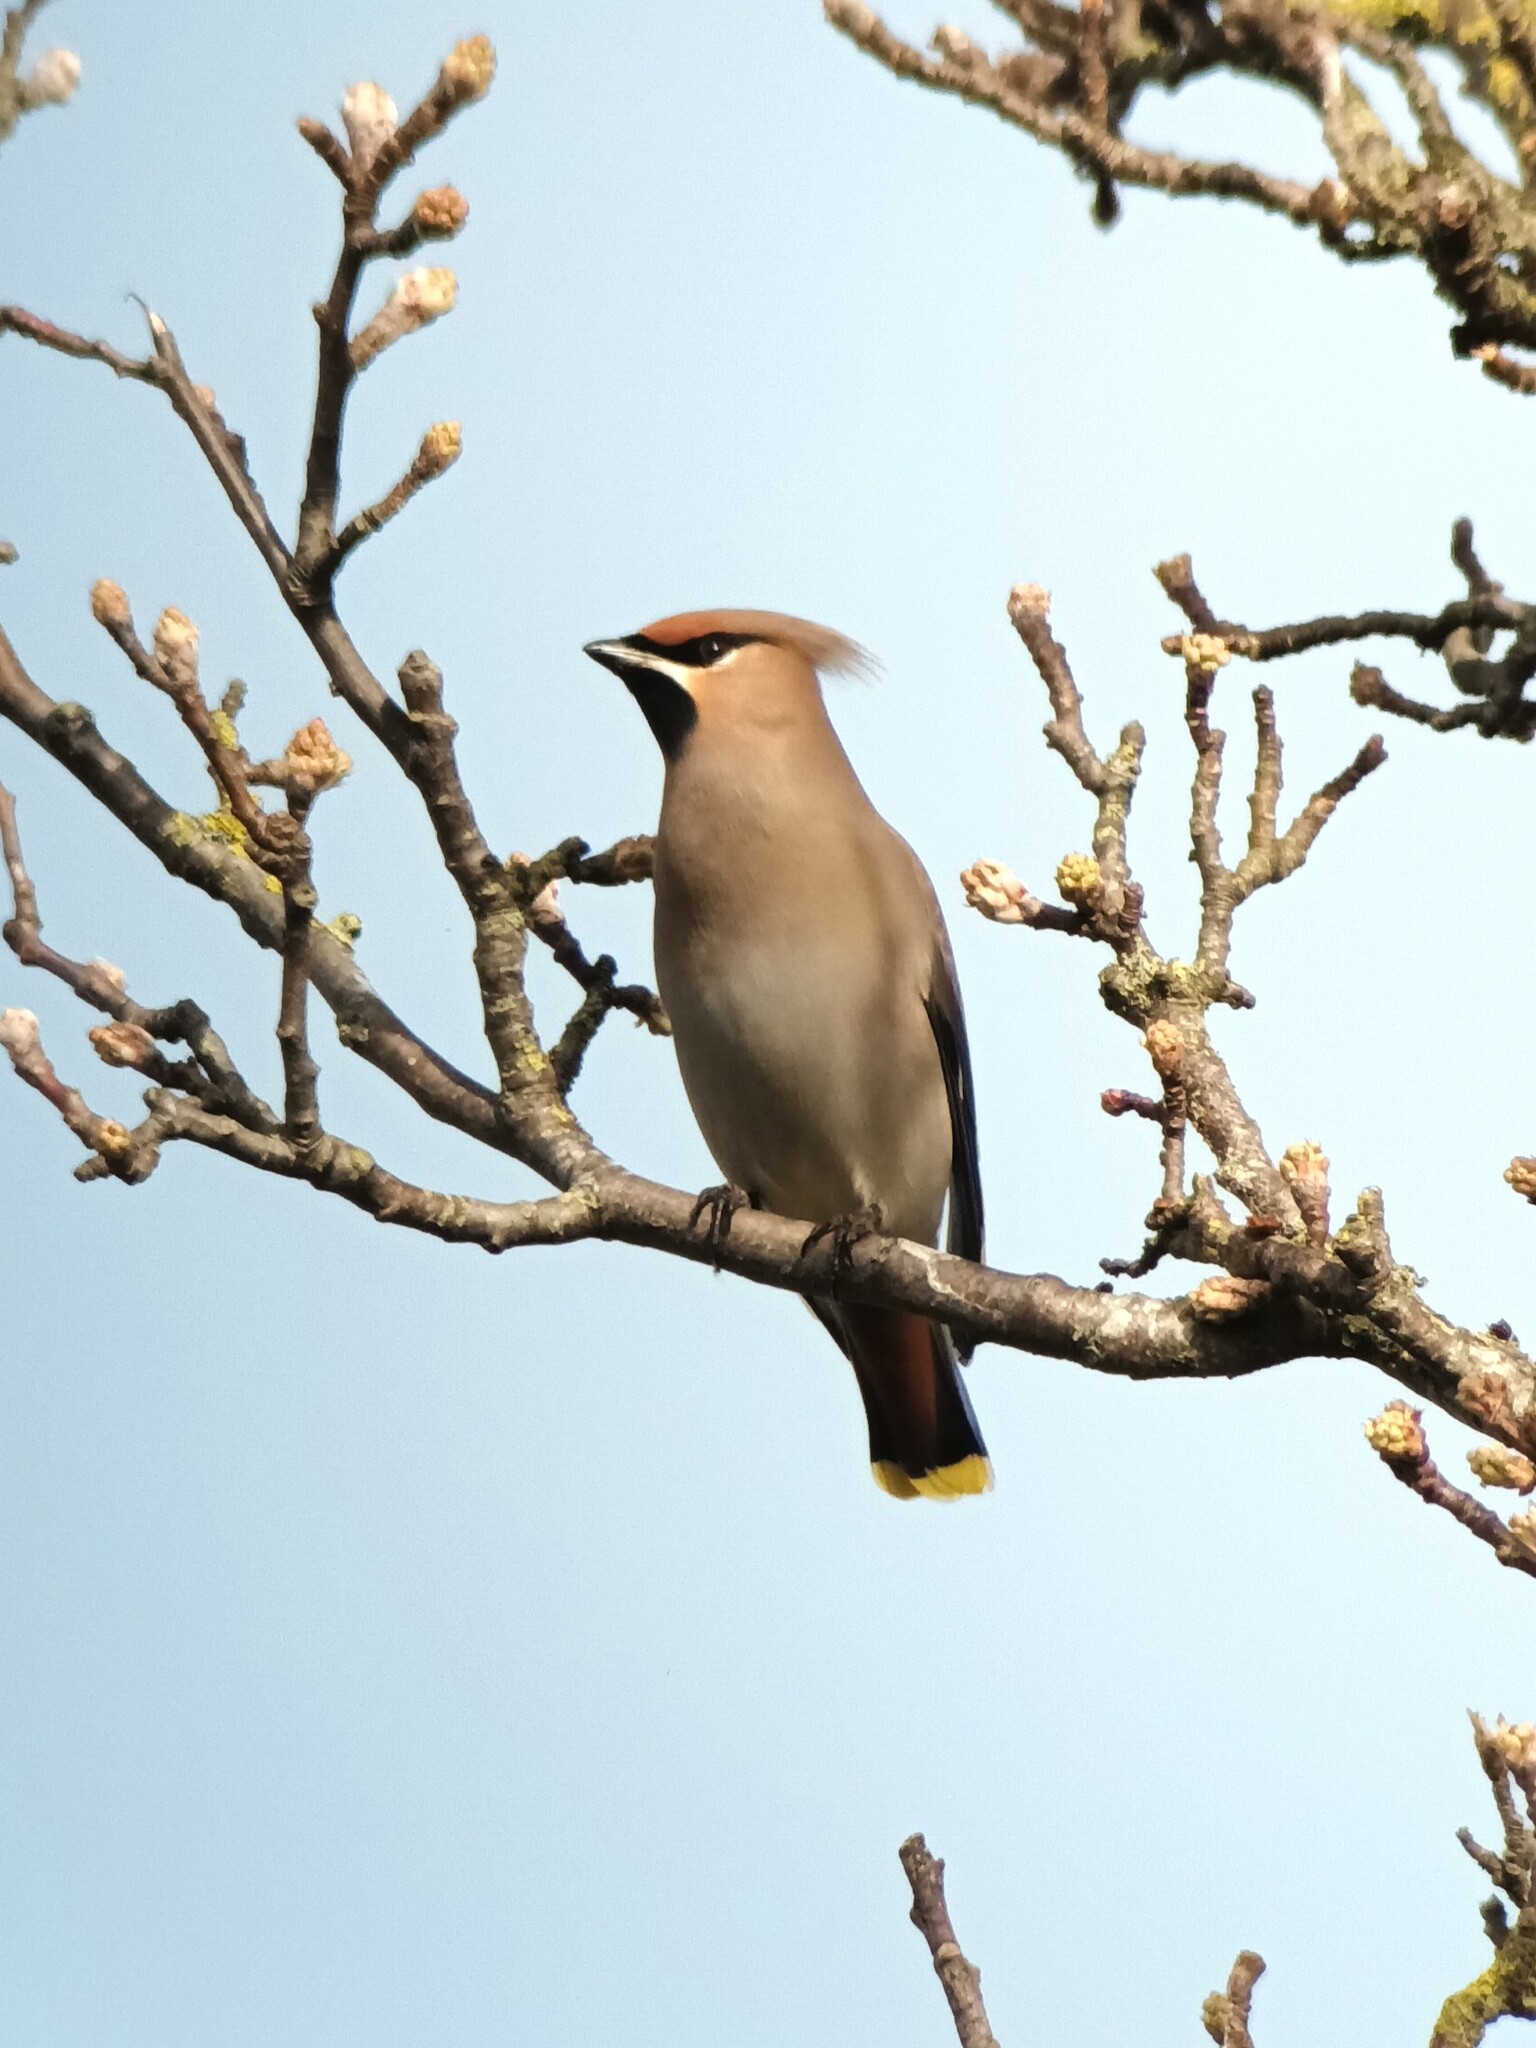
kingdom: Animalia
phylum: Chordata
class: Aves
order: Passeriformes
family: Bombycillidae
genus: Bombycilla
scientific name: Bombycilla garrulus
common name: Bohemian waxwing
